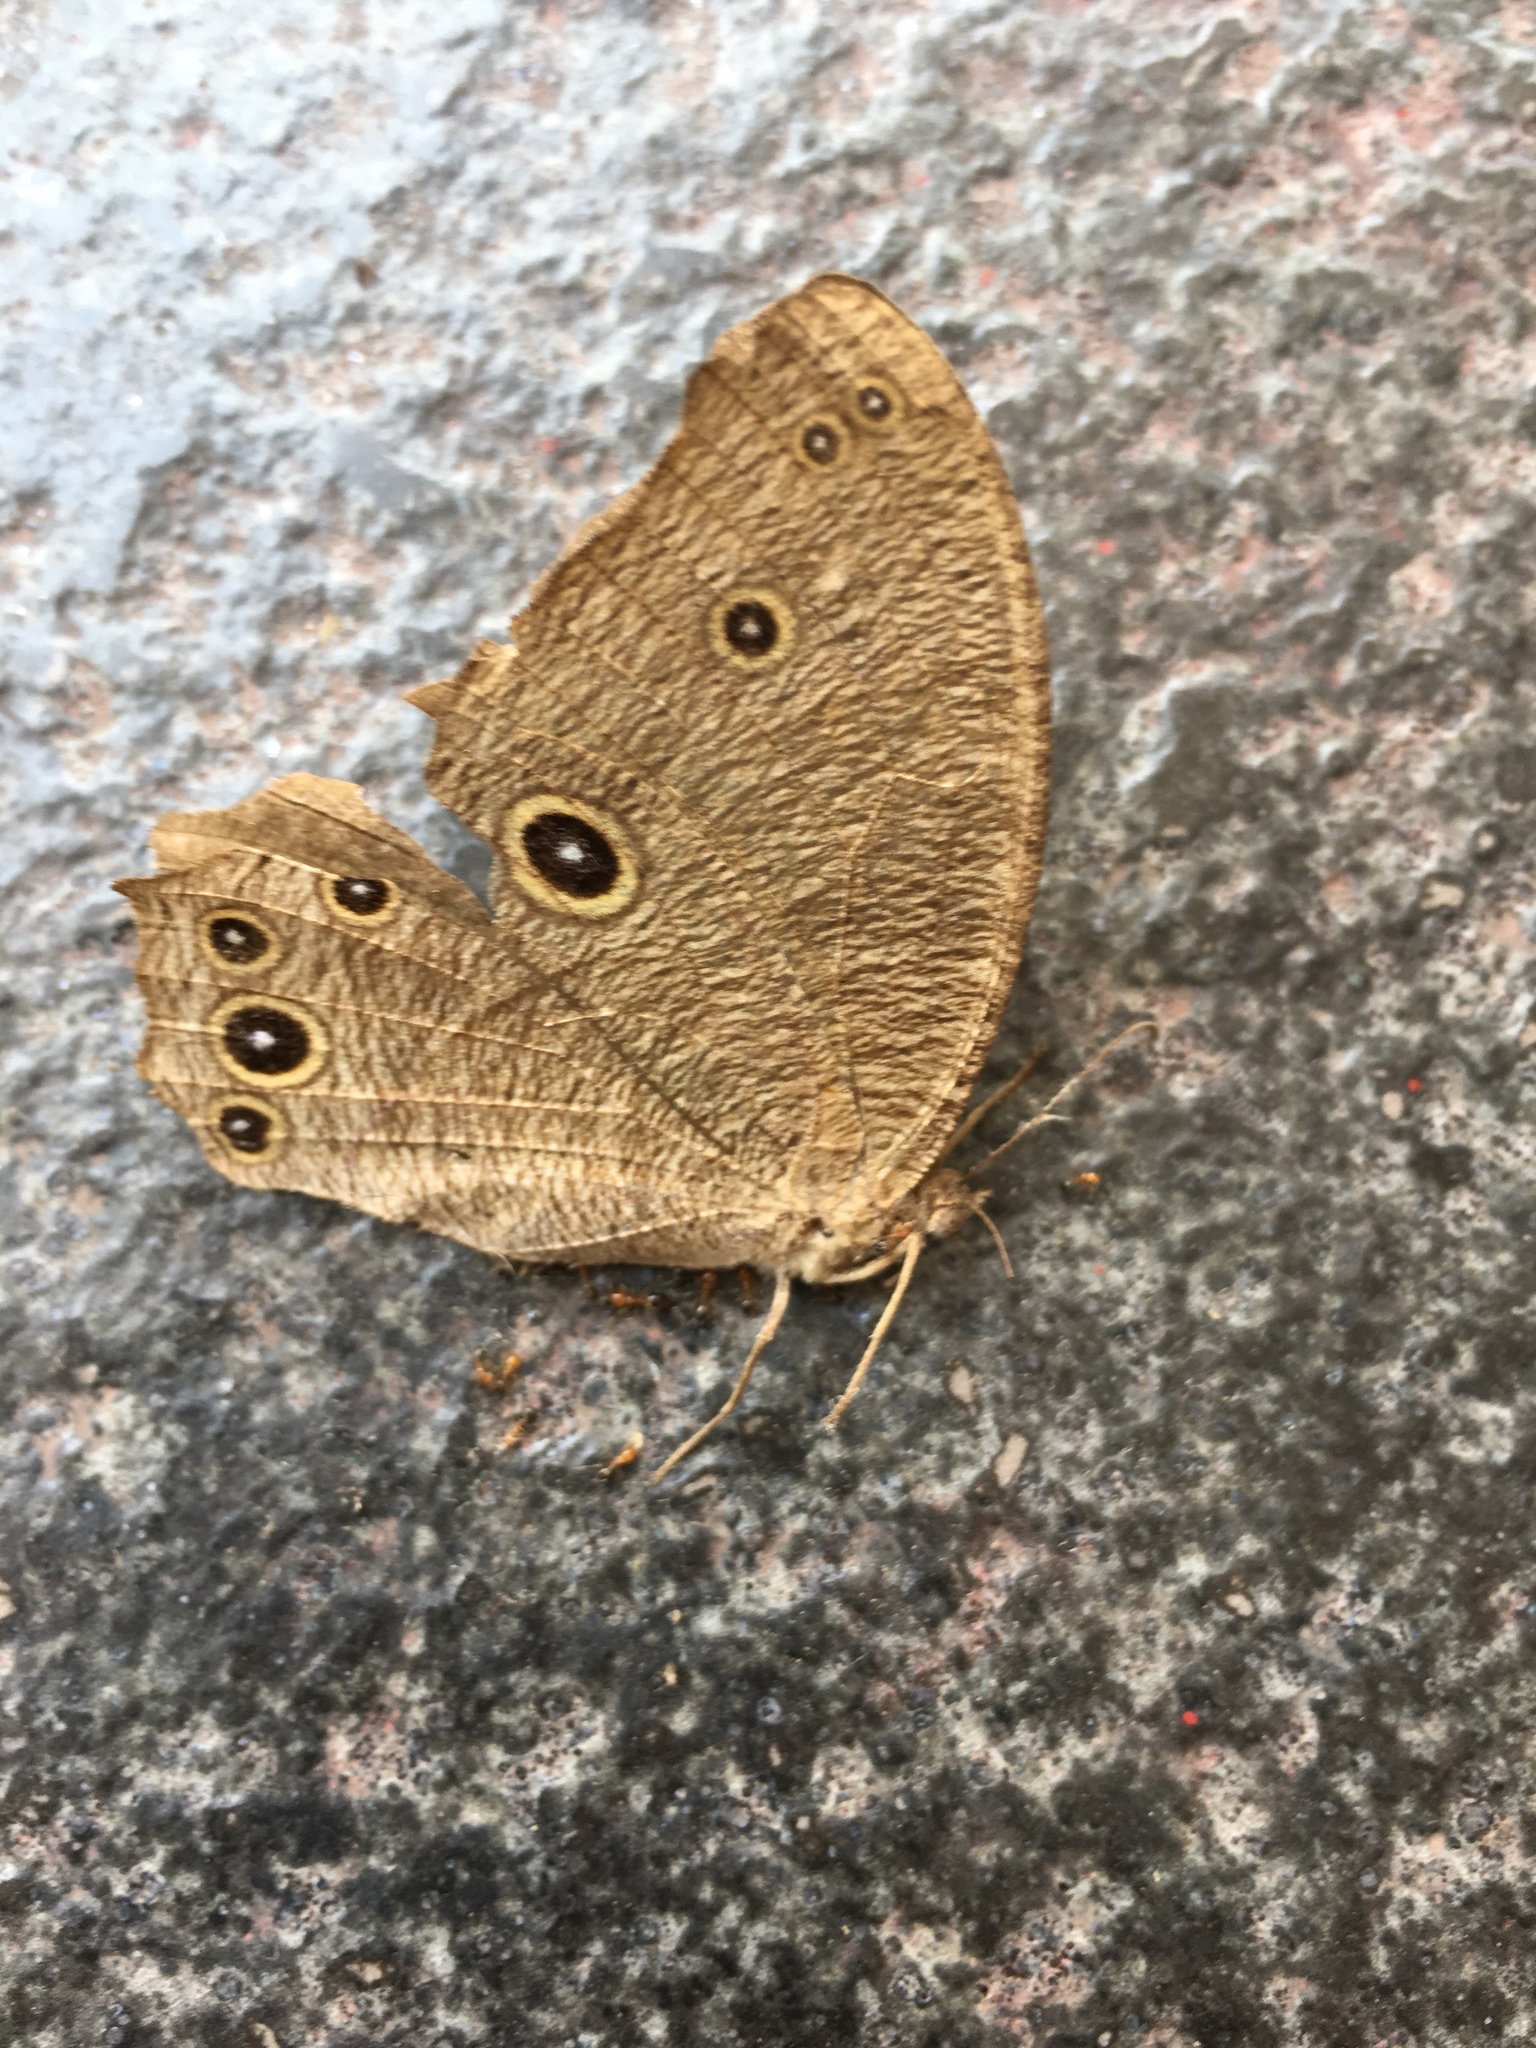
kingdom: Animalia
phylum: Arthropoda
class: Insecta
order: Lepidoptera
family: Nymphalidae
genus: Melanitis
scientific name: Melanitis leda
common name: Twilight brown
